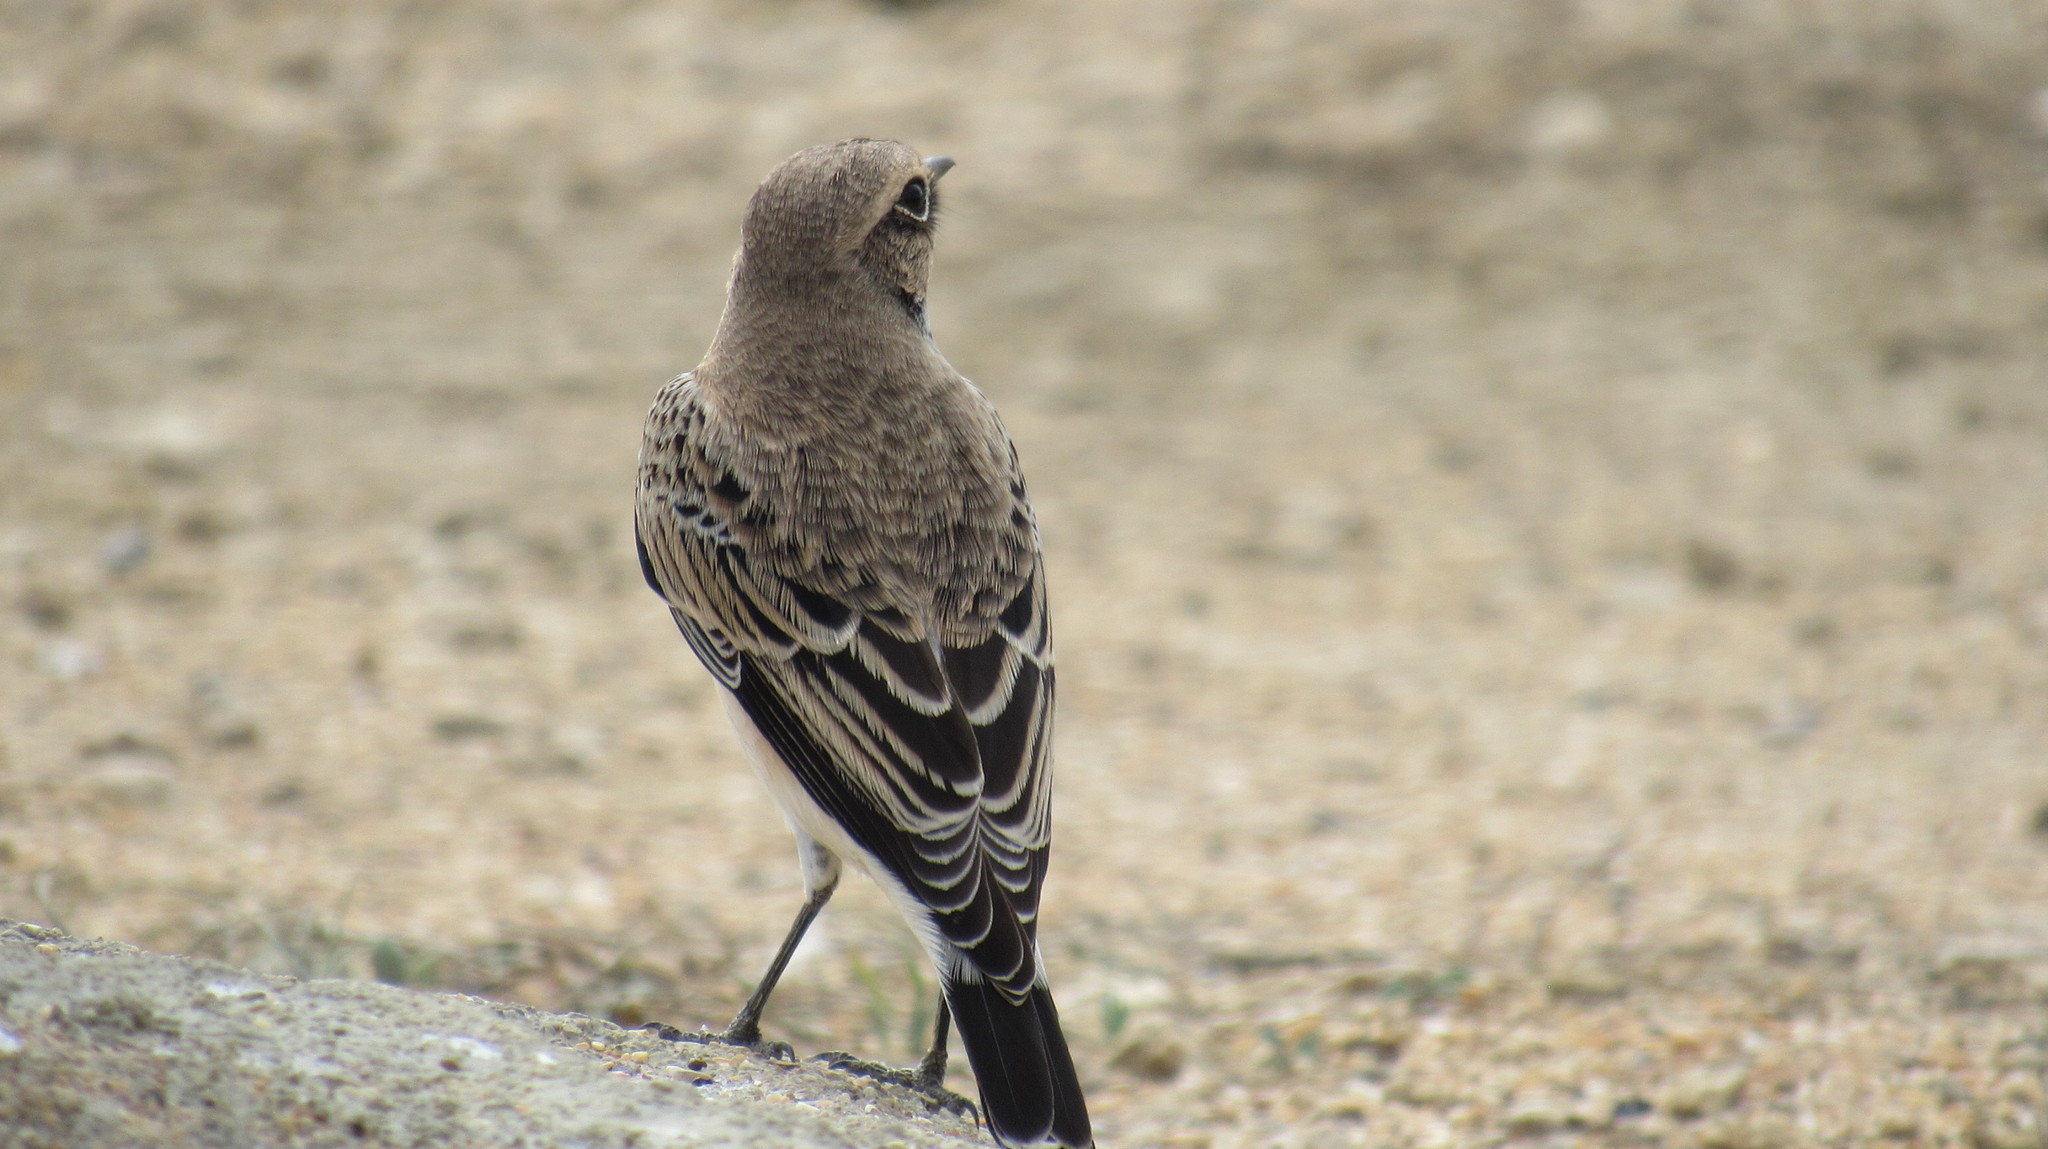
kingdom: Animalia
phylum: Chordata
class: Aves
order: Passeriformes
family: Muscicapidae
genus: Oenanthe
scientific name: Oenanthe pleschanka
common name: Pied wheatear
